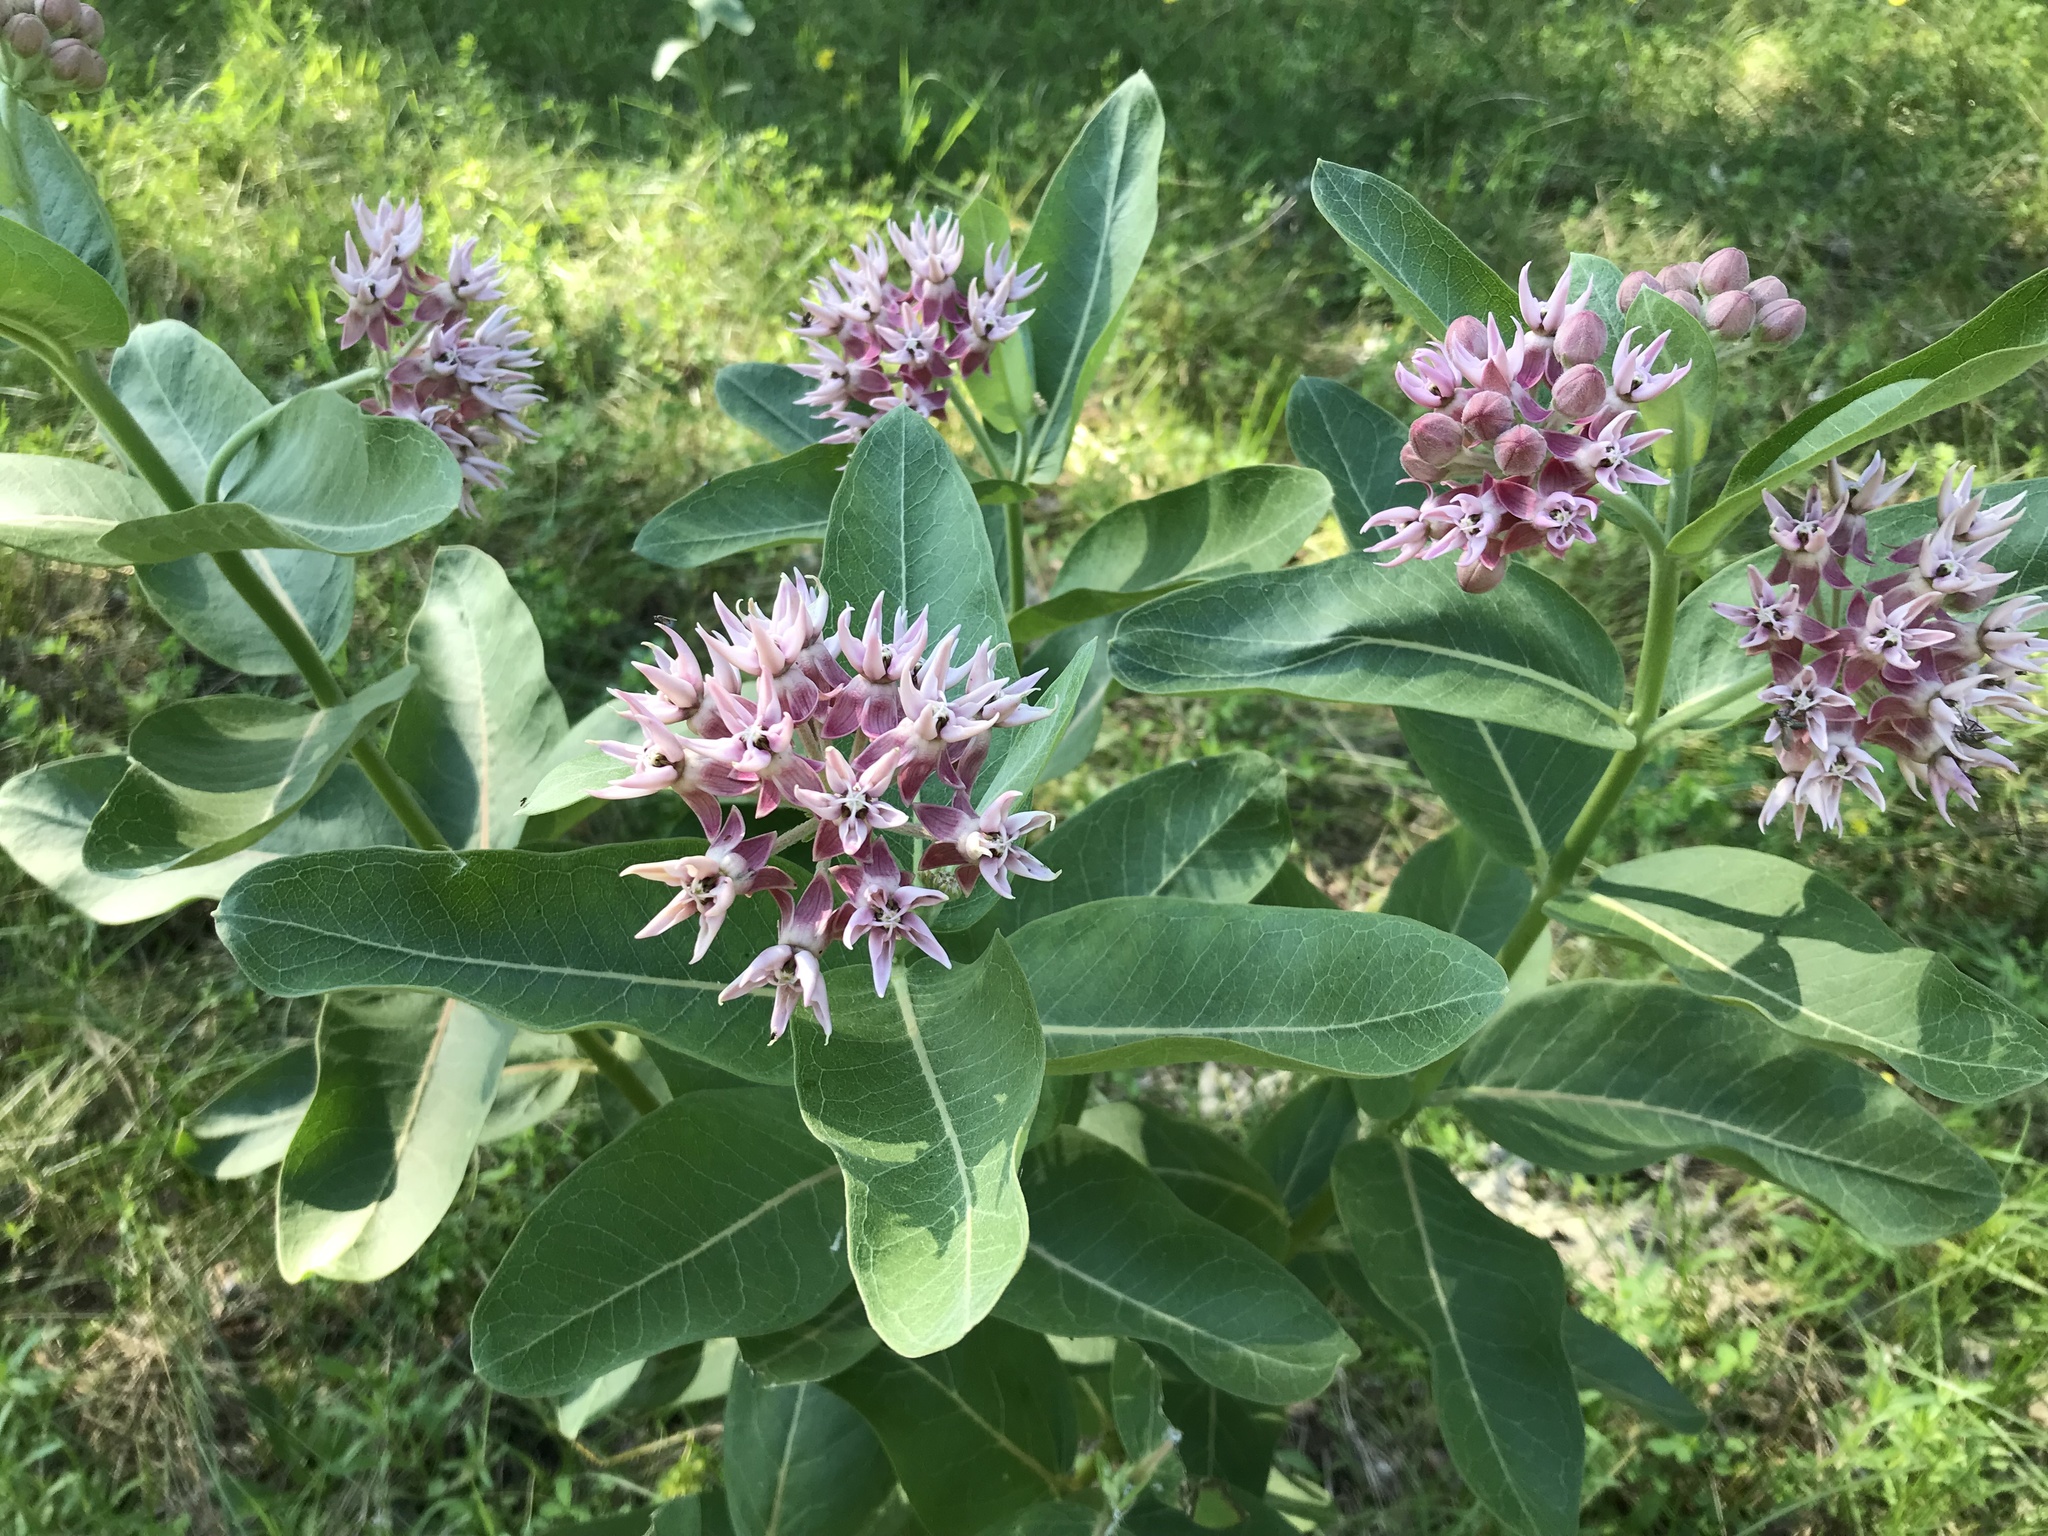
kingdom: Plantae
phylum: Tracheophyta
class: Magnoliopsida
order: Gentianales
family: Apocynaceae
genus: Asclepias
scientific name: Asclepias speciosa
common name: Showy milkweed
